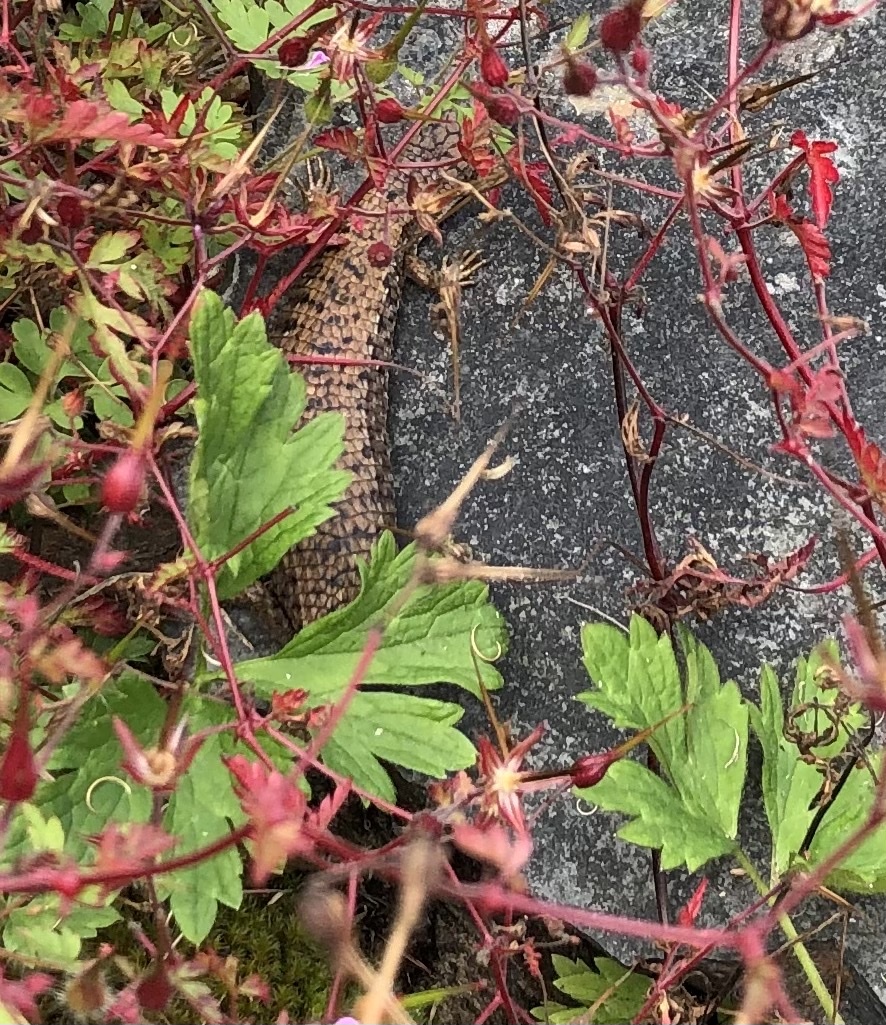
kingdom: Animalia
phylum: Chordata
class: Squamata
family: Anguidae
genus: Elgaria
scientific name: Elgaria coerulea
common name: Northern alligator lizard
